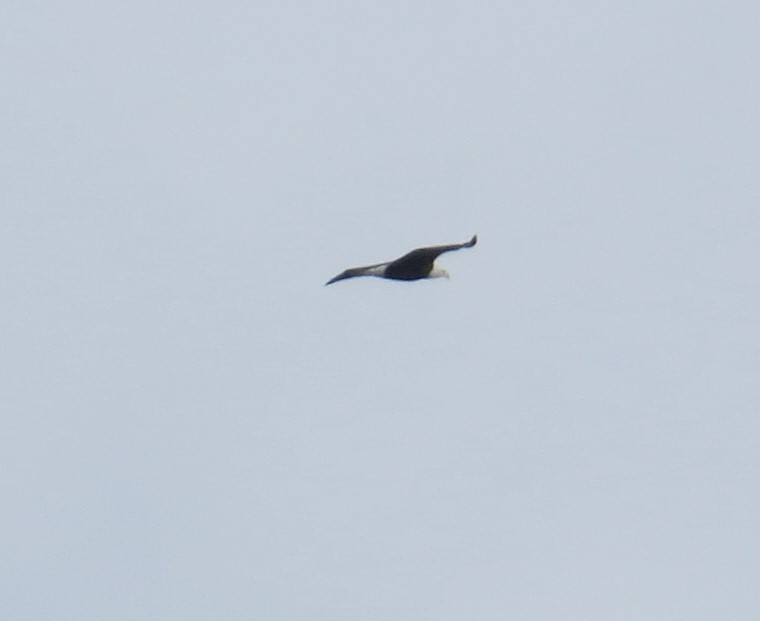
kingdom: Animalia
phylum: Chordata
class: Aves
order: Accipitriformes
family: Accipitridae
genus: Haliaeetus
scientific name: Haliaeetus leucocephalus
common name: Bald eagle
